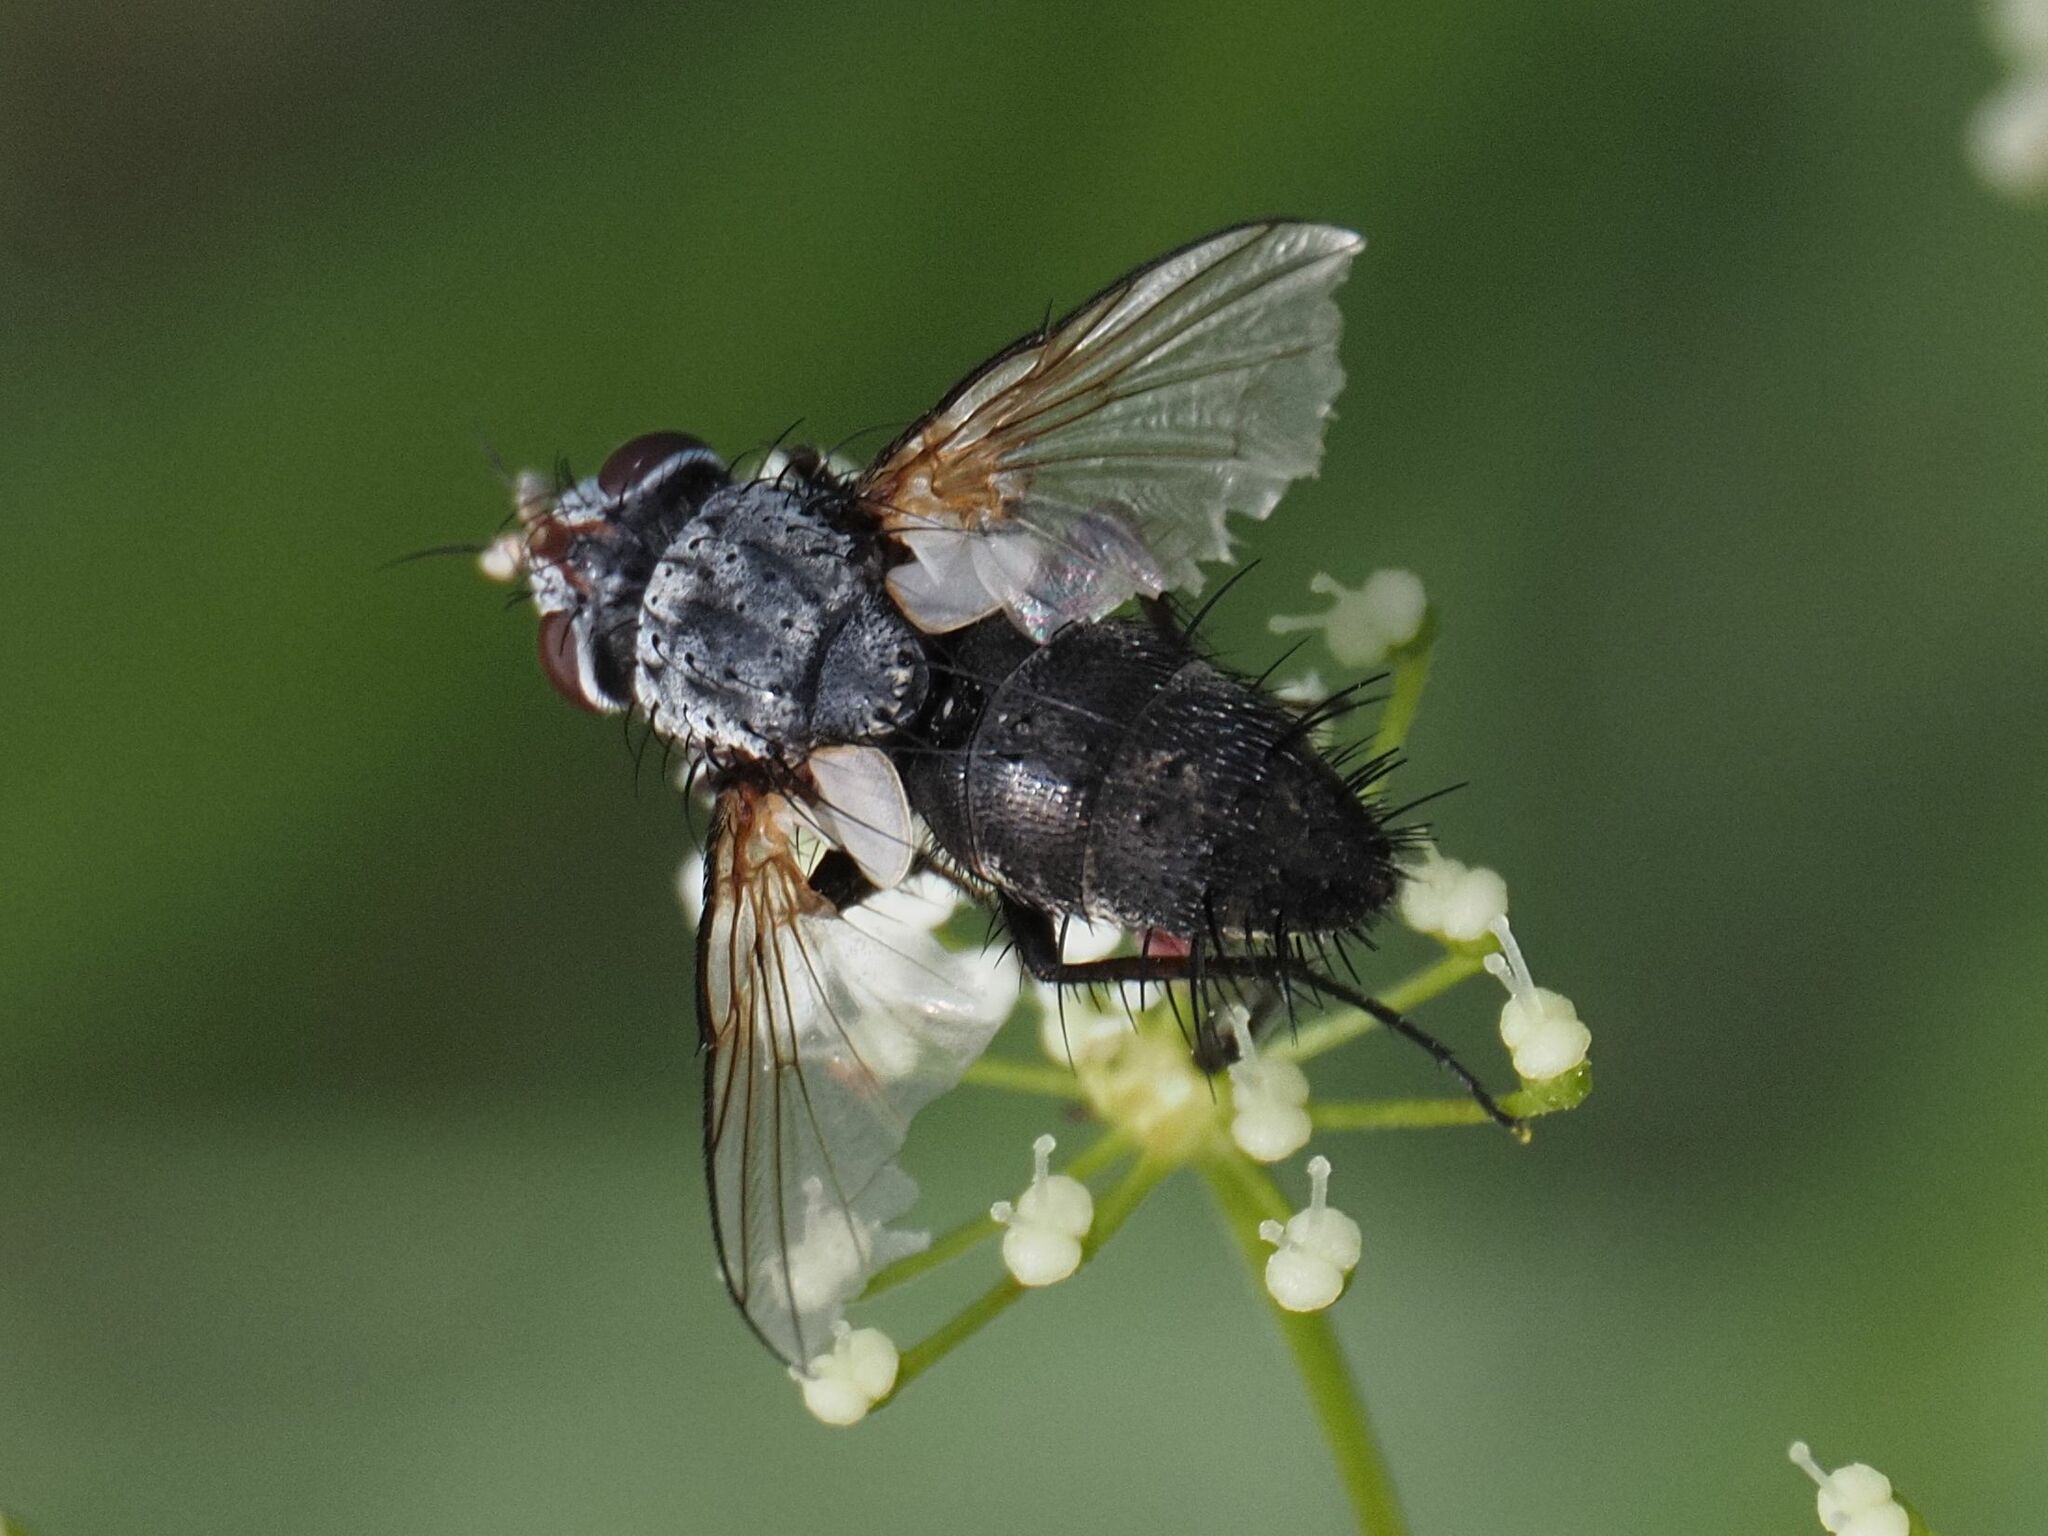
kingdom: Animalia
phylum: Arthropoda
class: Insecta
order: Diptera
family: Tachinidae
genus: Demoticus
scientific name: Demoticus plebejus
